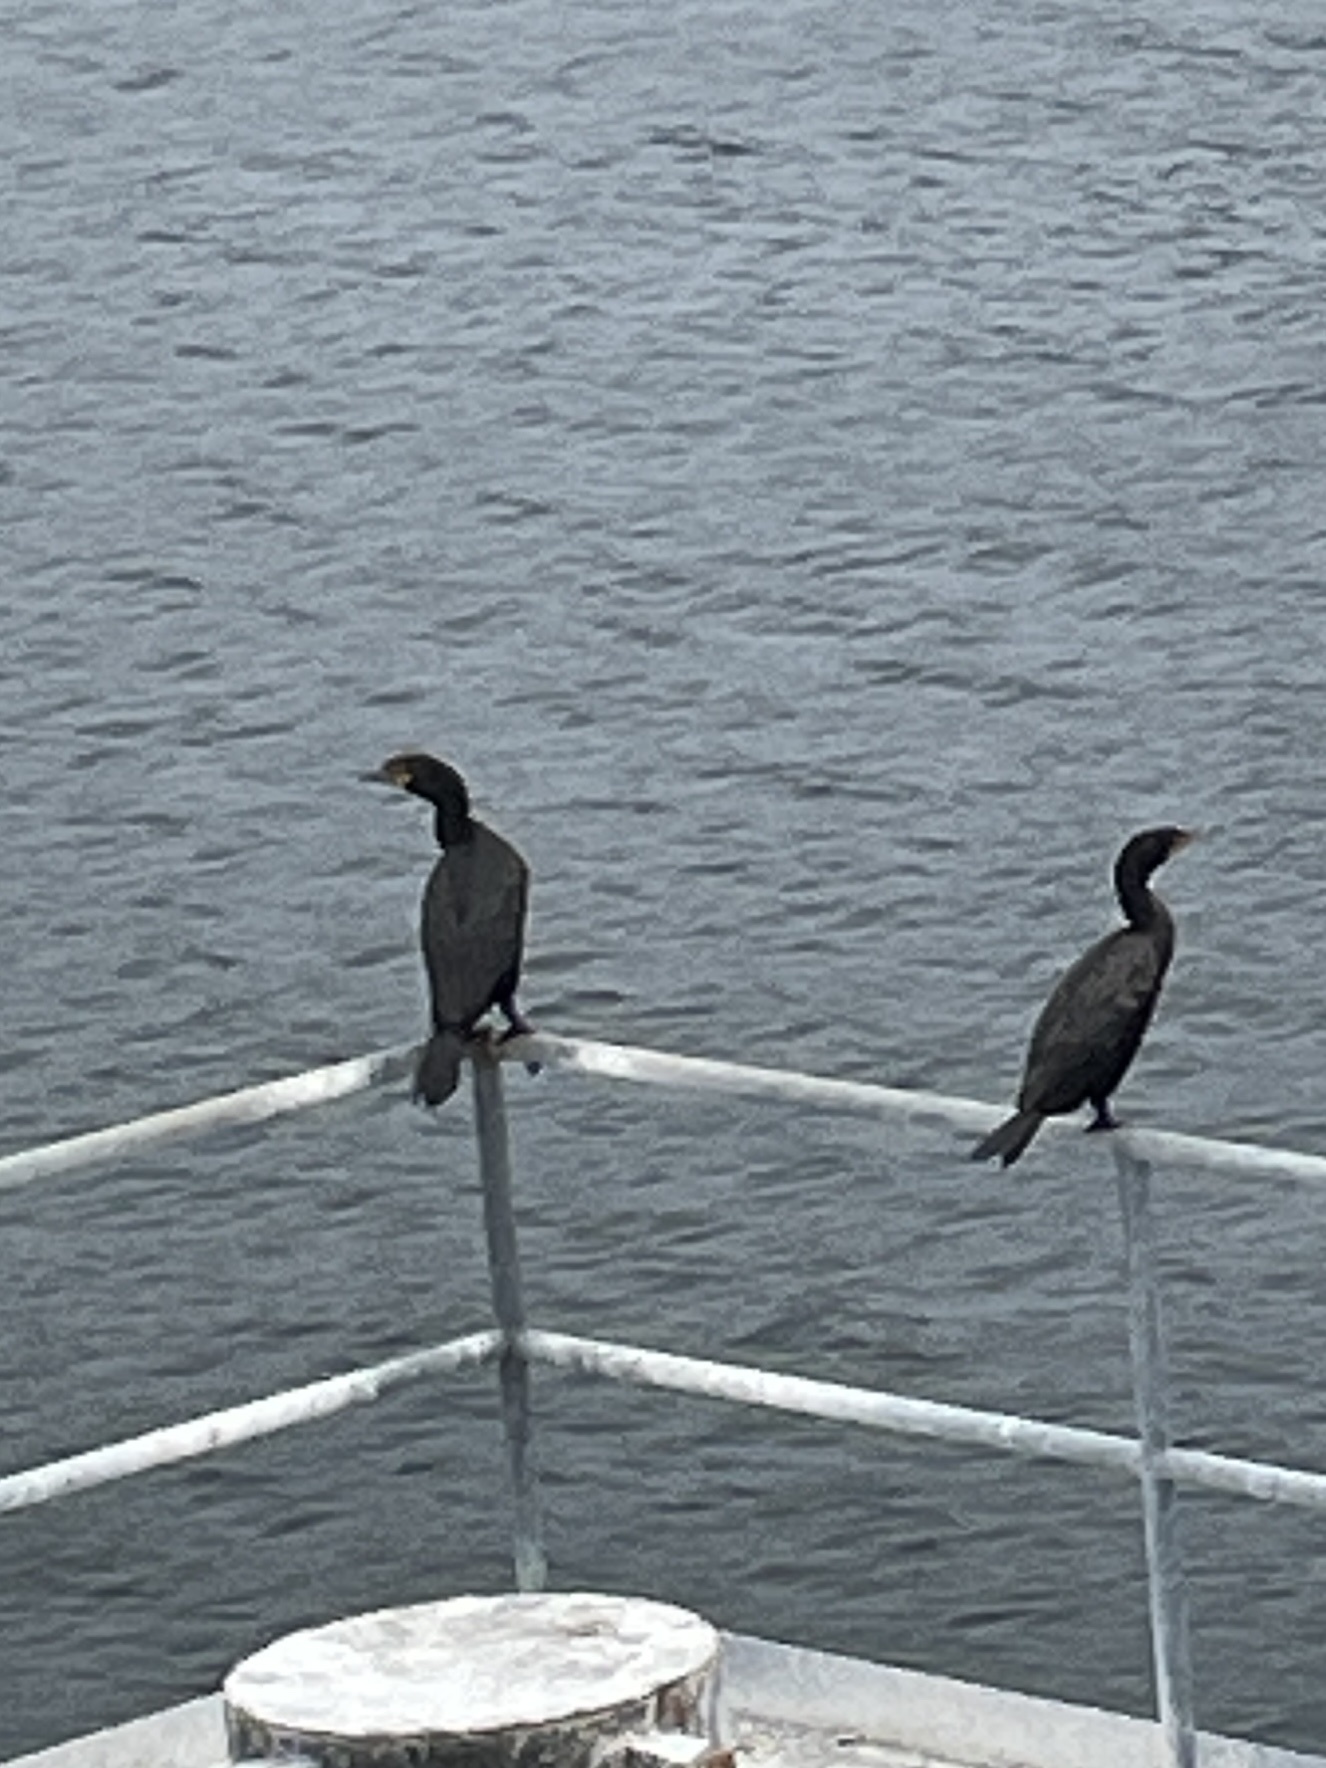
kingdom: Animalia
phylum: Chordata
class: Aves
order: Suliformes
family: Phalacrocoracidae
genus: Phalacrocorax
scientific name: Phalacrocorax auritus
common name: Double-crested cormorant
